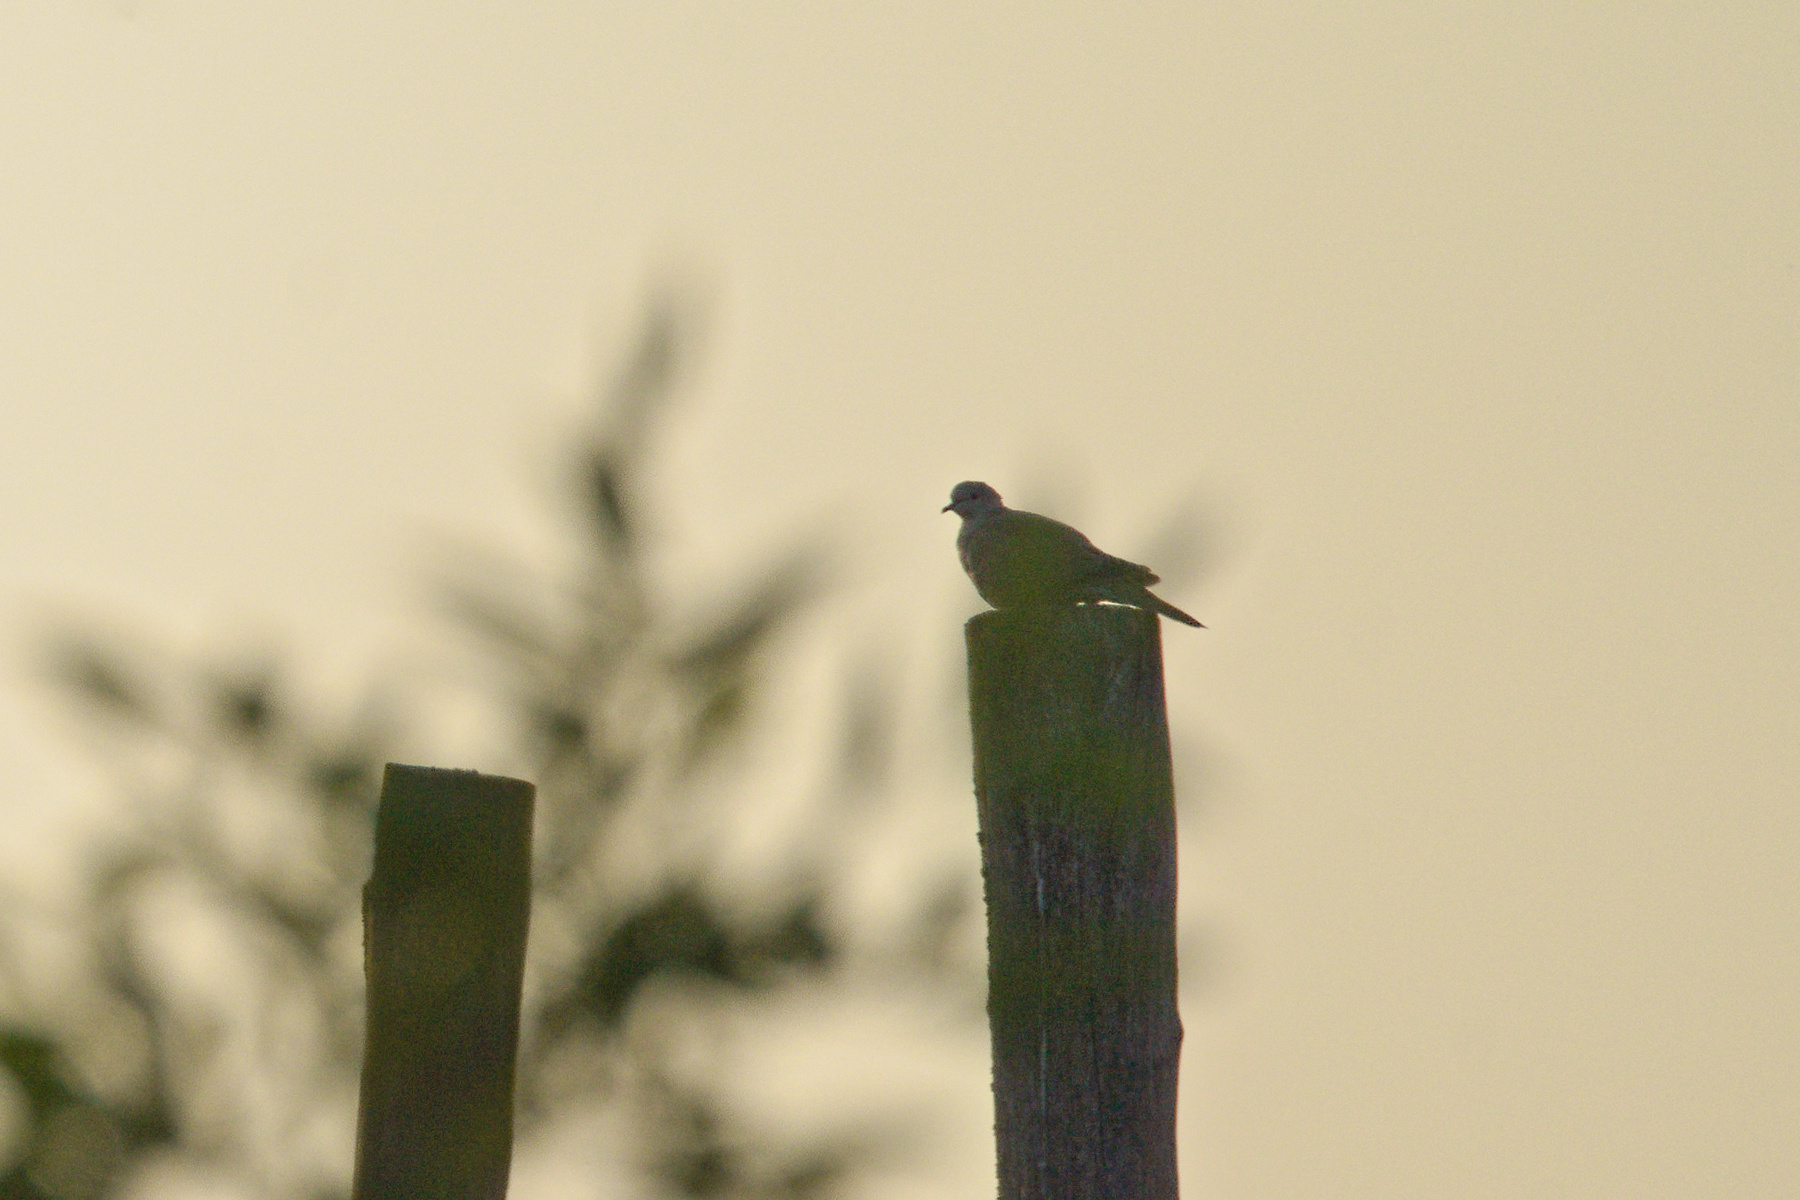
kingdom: Animalia
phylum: Chordata
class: Aves
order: Columbiformes
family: Columbidae
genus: Streptopelia
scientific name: Streptopelia decaocto
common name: Eurasian collared dove
